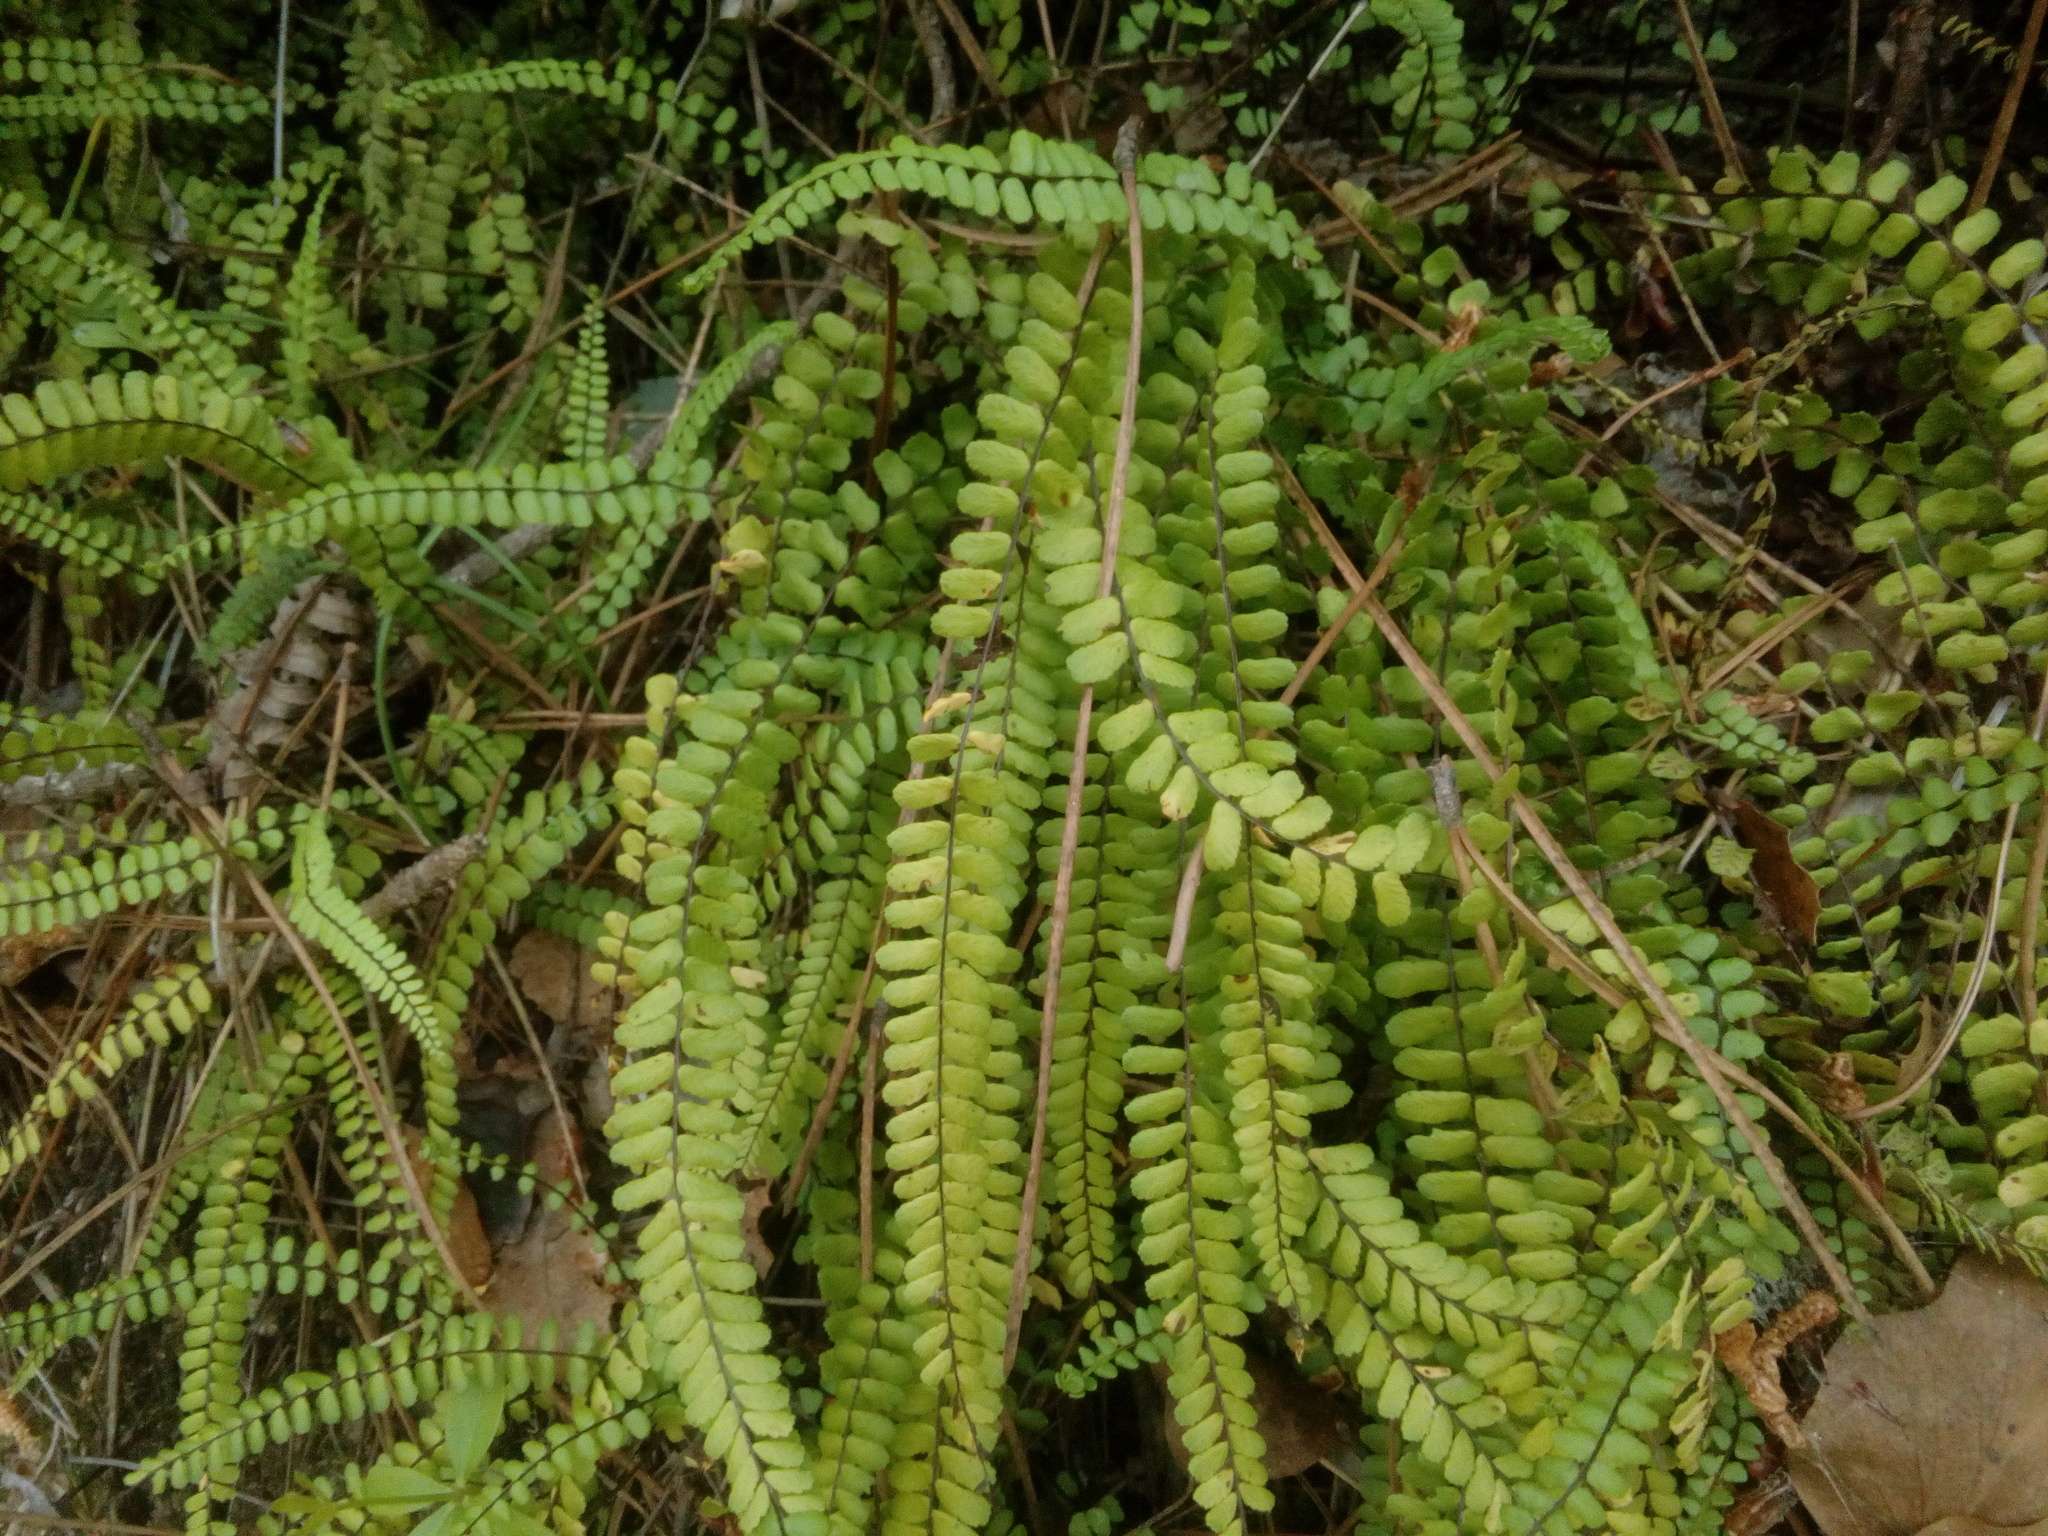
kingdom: Plantae
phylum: Tracheophyta
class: Polypodiopsida
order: Polypodiales
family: Aspleniaceae
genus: Asplenium
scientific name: Asplenium trichomanes
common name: Maidenhair spleenwort
